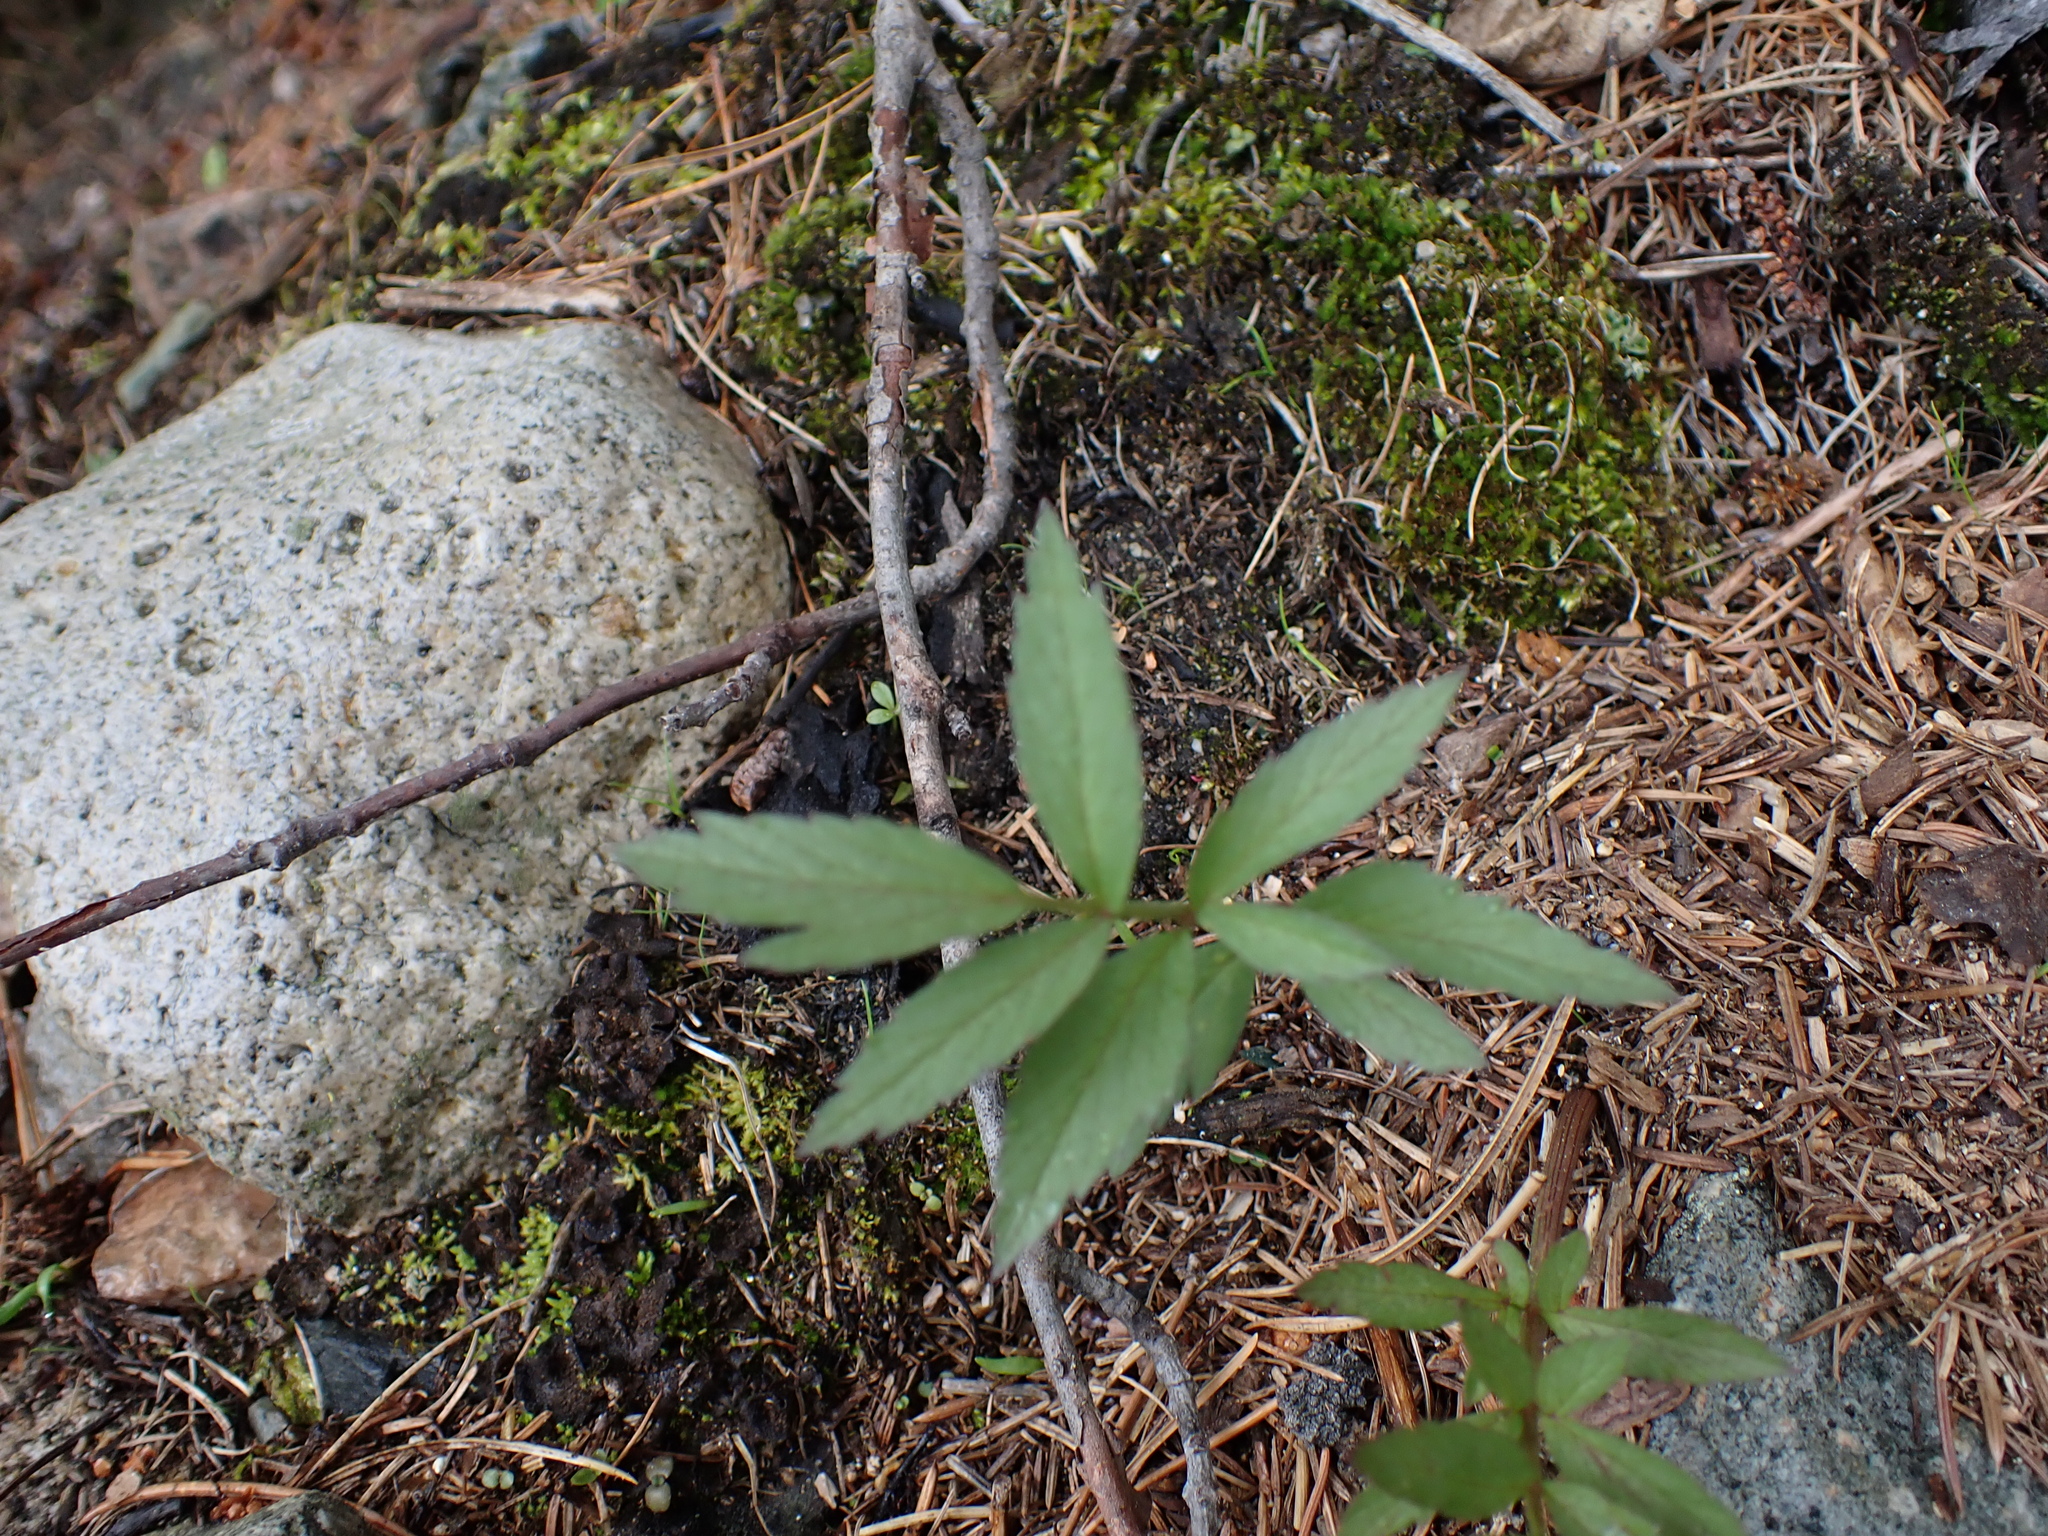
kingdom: Plantae
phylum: Tracheophyta
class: Magnoliopsida
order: Apiales
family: Apiaceae
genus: Cicuta
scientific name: Cicuta douglasii
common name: Western water-hemlock
